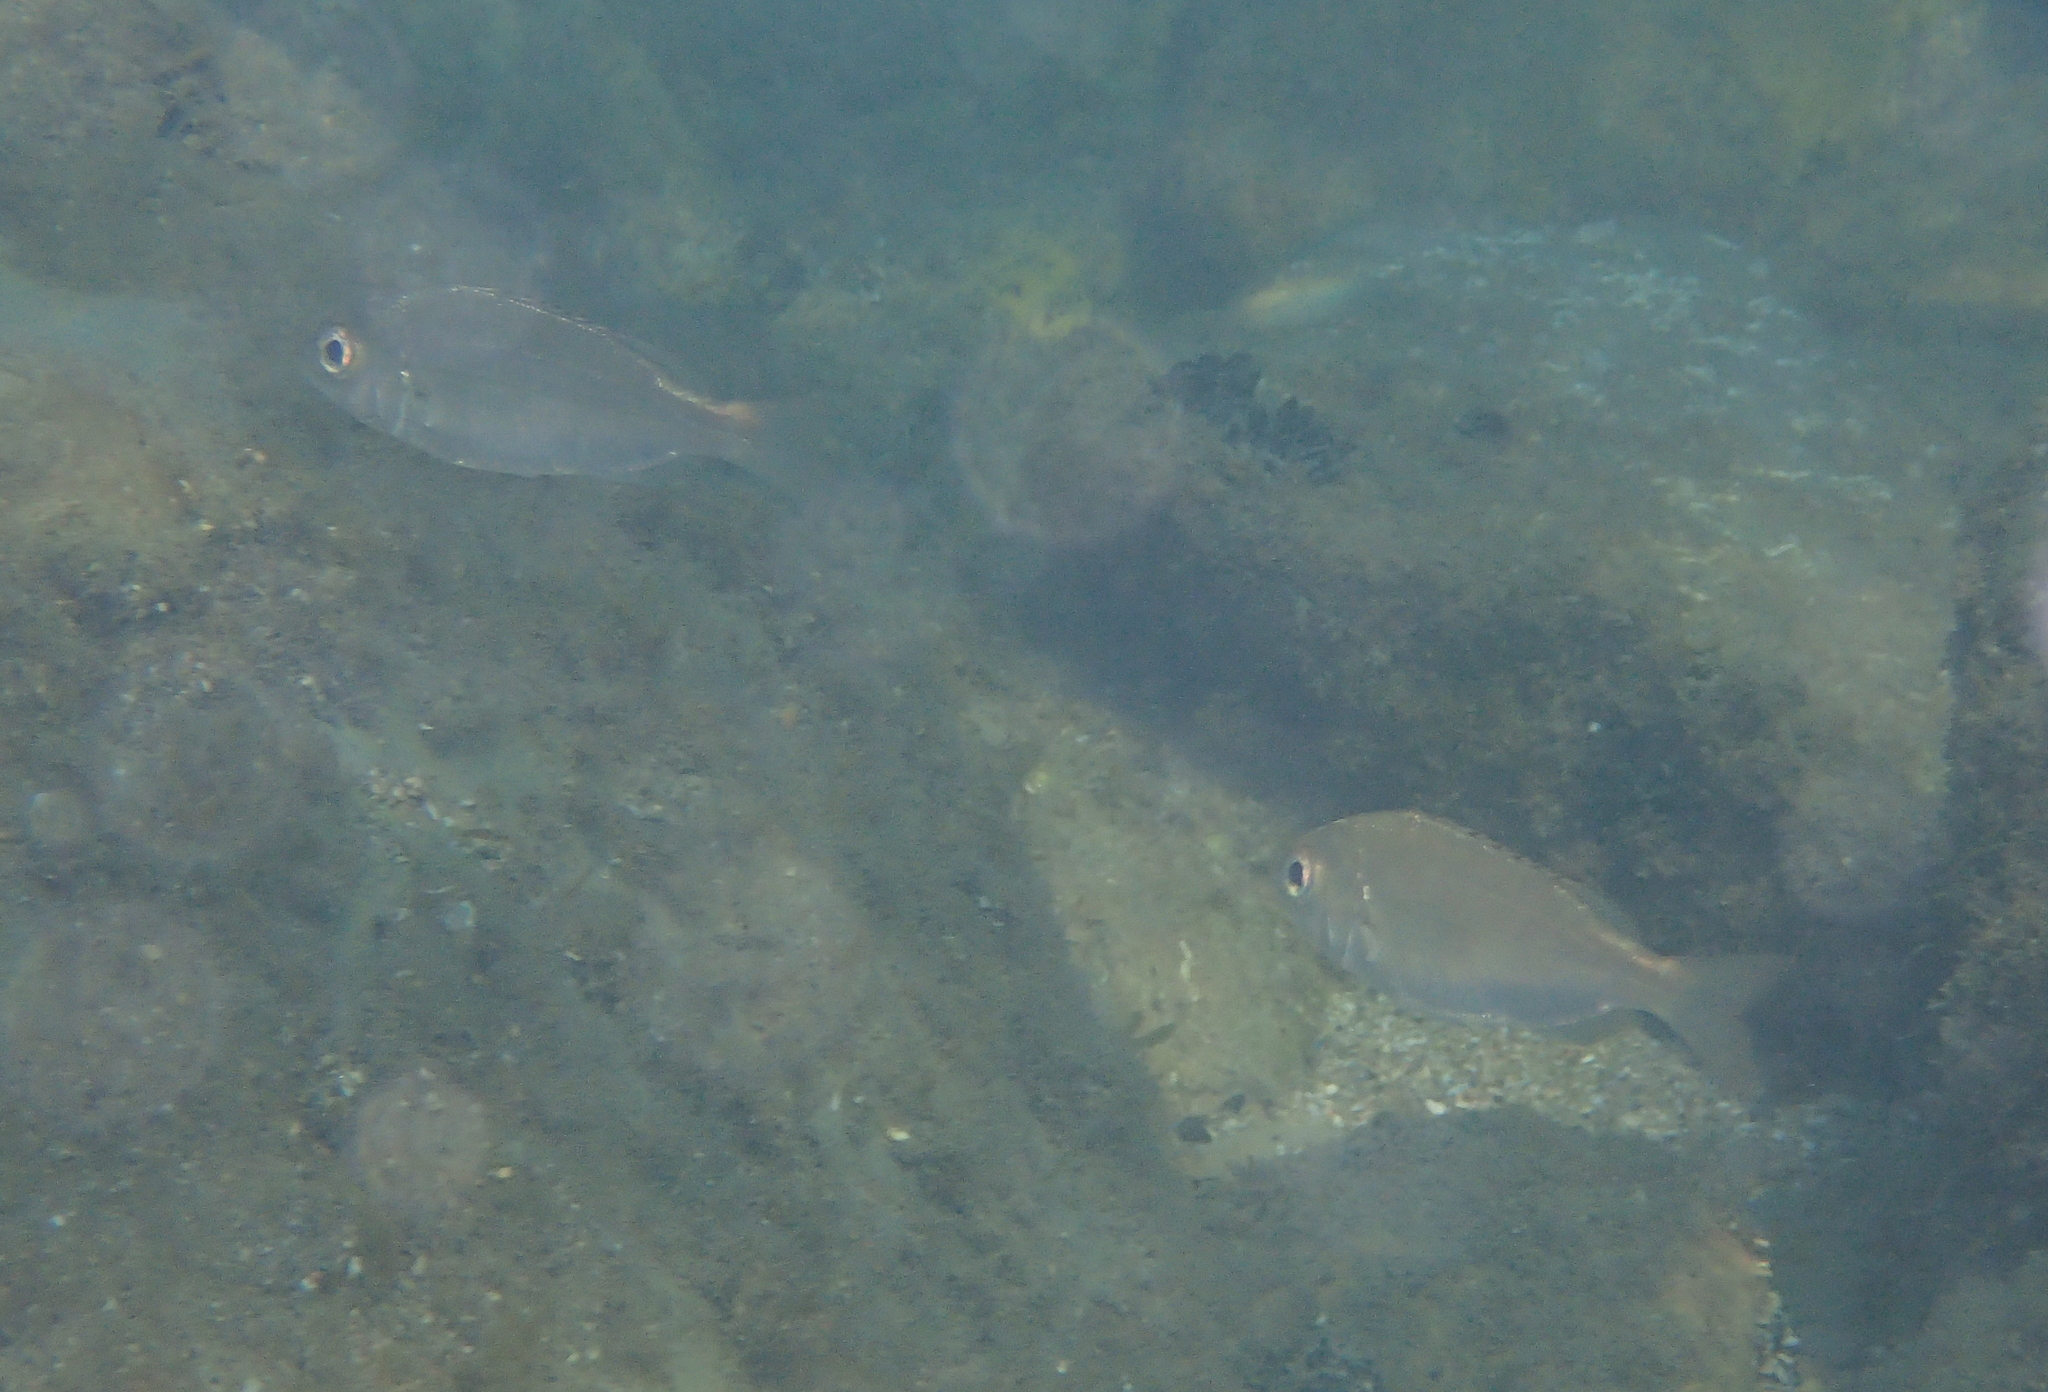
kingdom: Animalia
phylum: Chordata
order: Perciformes
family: Sparidae
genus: Pagellus
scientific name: Pagellus acarne
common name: Axillary sea-bream
